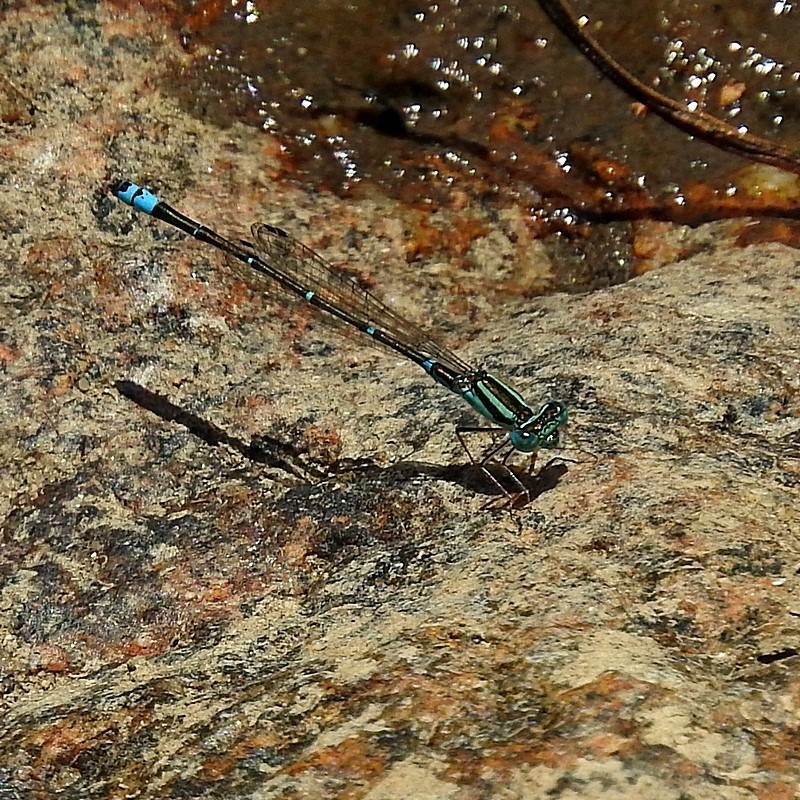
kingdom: Animalia
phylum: Arthropoda
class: Insecta
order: Odonata
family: Coenagrionidae
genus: Austroagrion
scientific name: Austroagrion watsoni
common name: Eastern billabongfly
